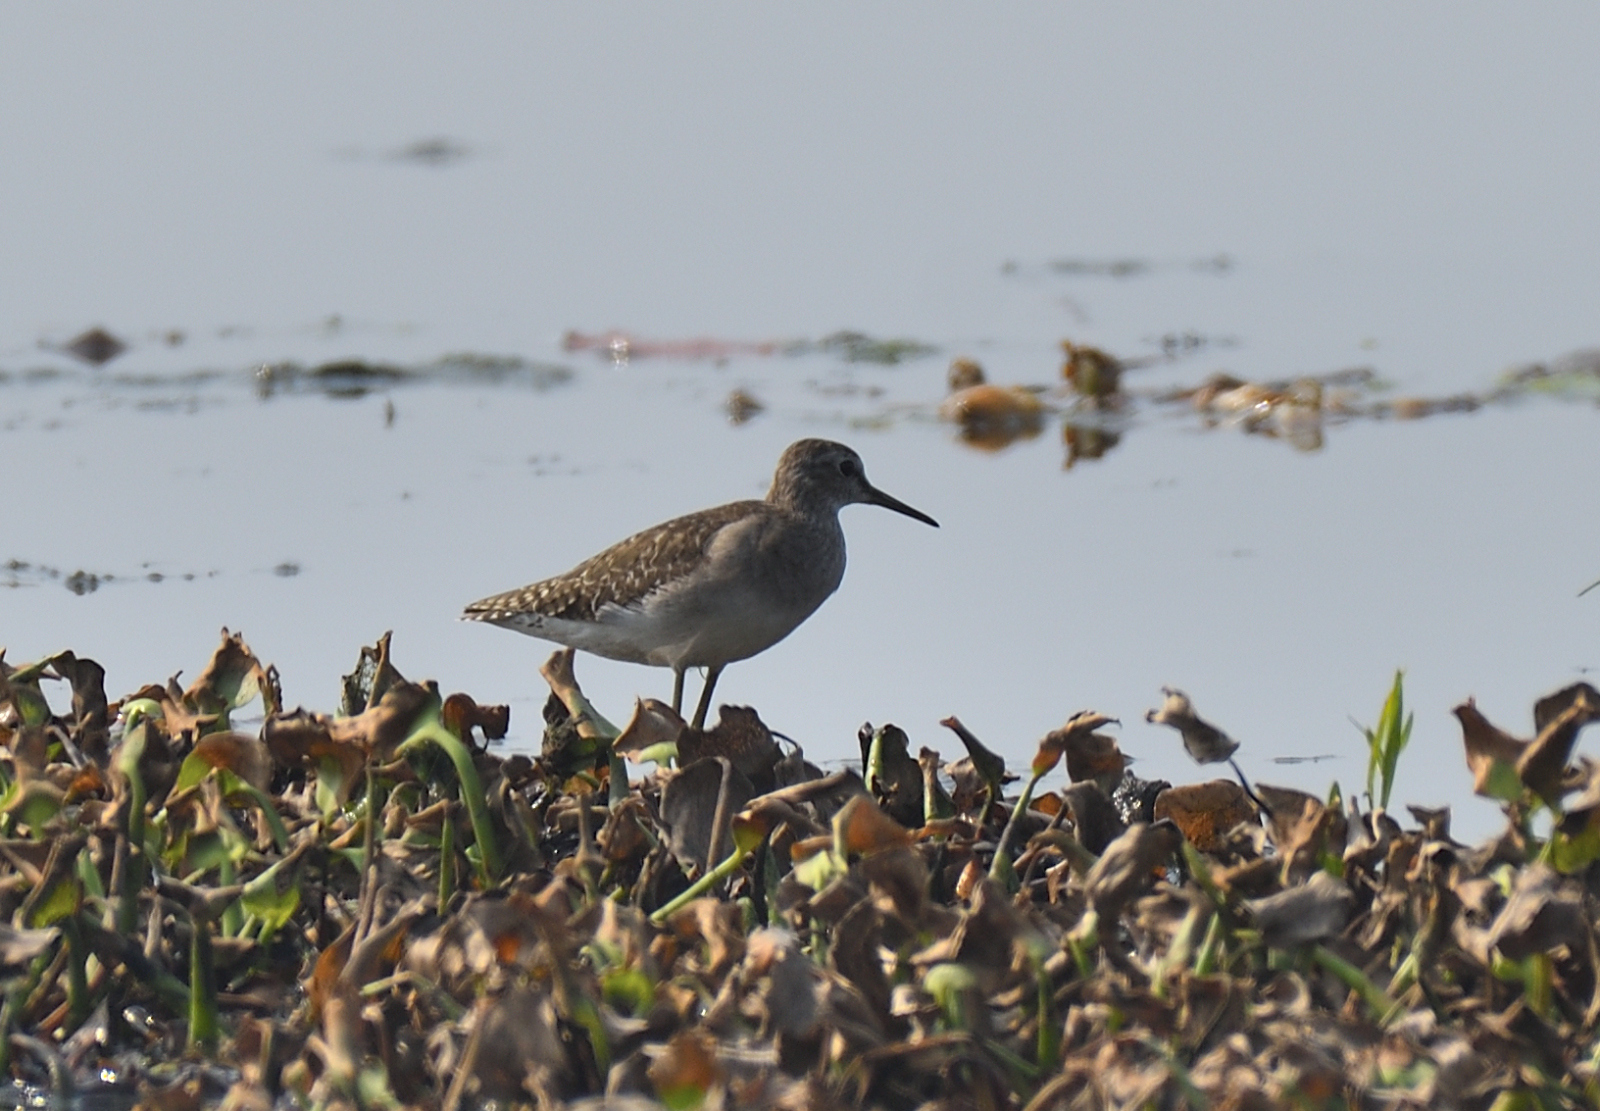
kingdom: Animalia
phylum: Chordata
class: Aves
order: Charadriiformes
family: Scolopacidae
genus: Tringa
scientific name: Tringa glareola
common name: Wood sandpiper
